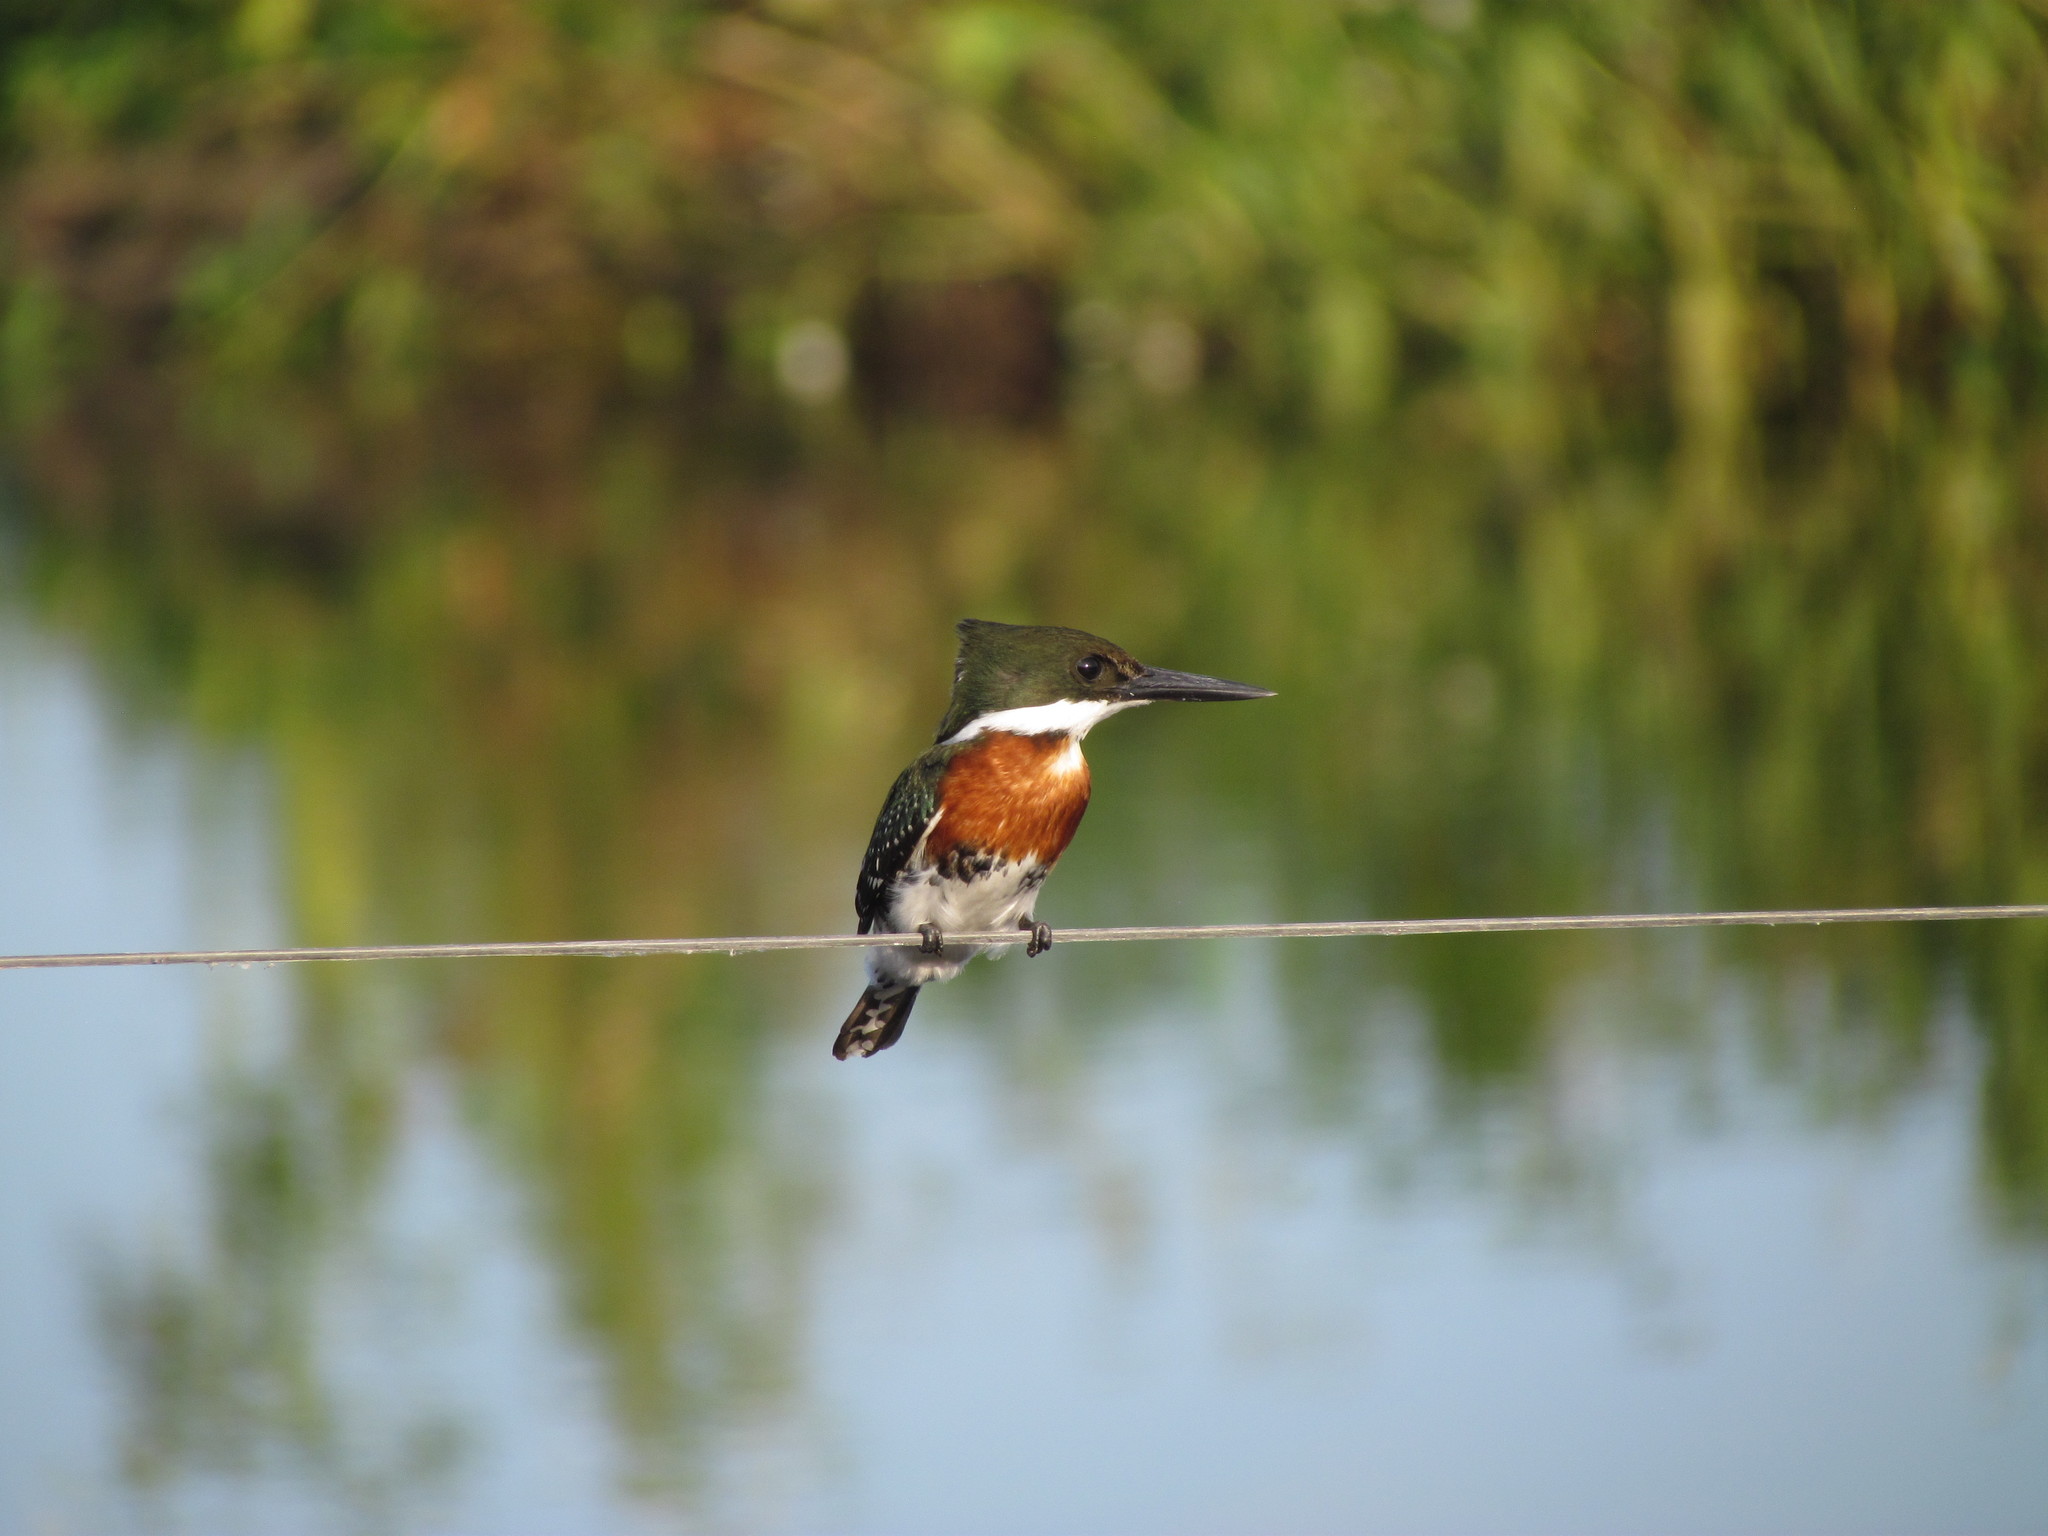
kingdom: Animalia
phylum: Chordata
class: Aves
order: Coraciiformes
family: Alcedinidae
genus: Chloroceryle
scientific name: Chloroceryle americana
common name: Green kingfisher
